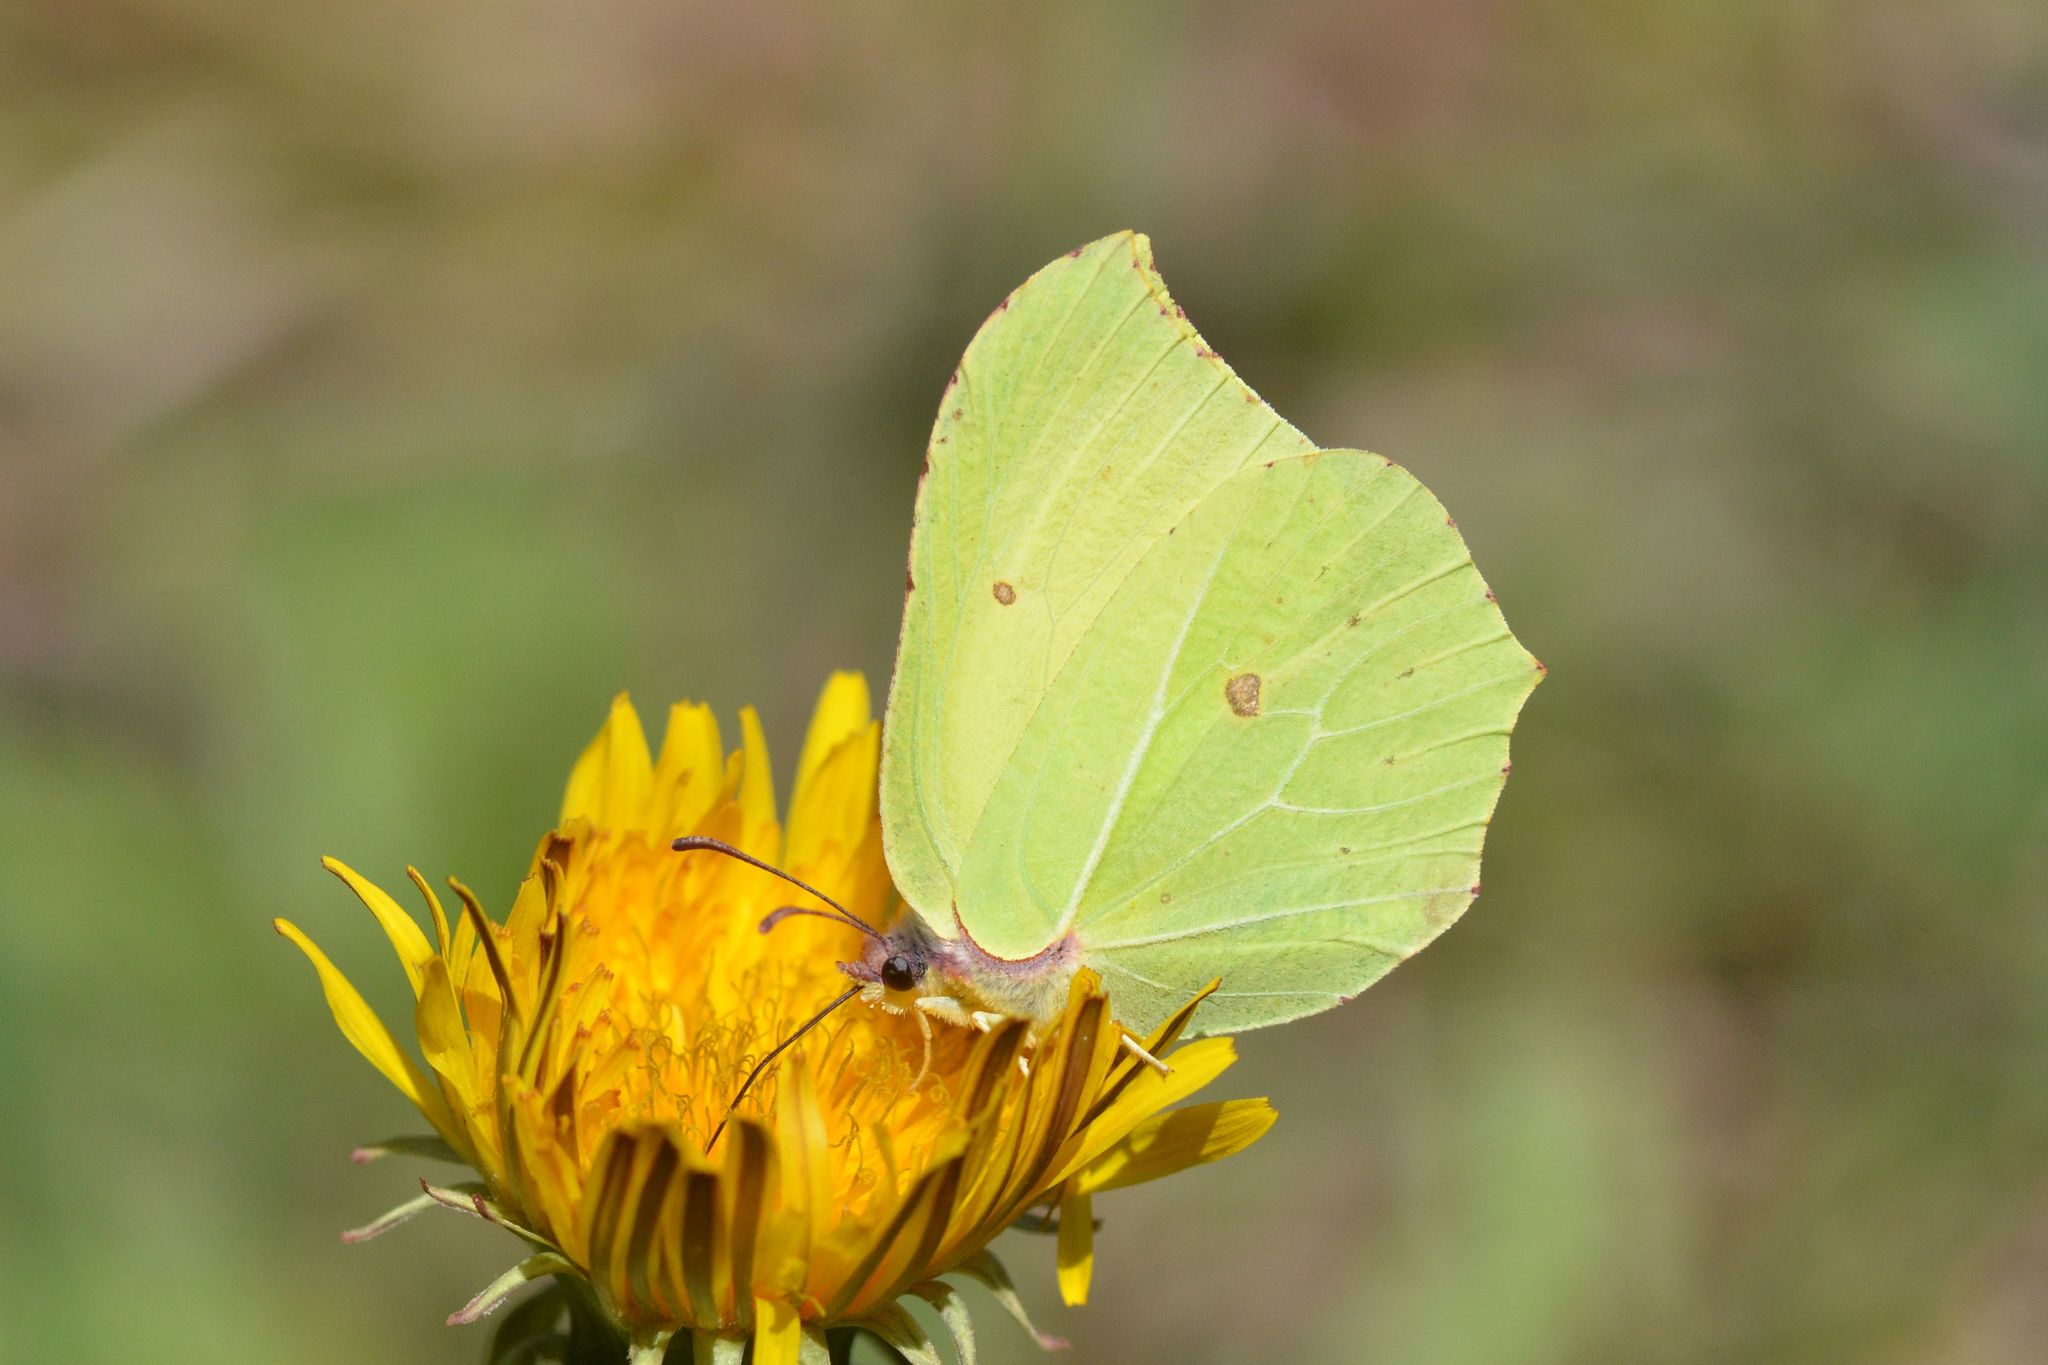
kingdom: Animalia
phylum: Arthropoda
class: Insecta
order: Lepidoptera
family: Pieridae
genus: Gonepteryx
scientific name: Gonepteryx rhamni
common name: Brimstone
